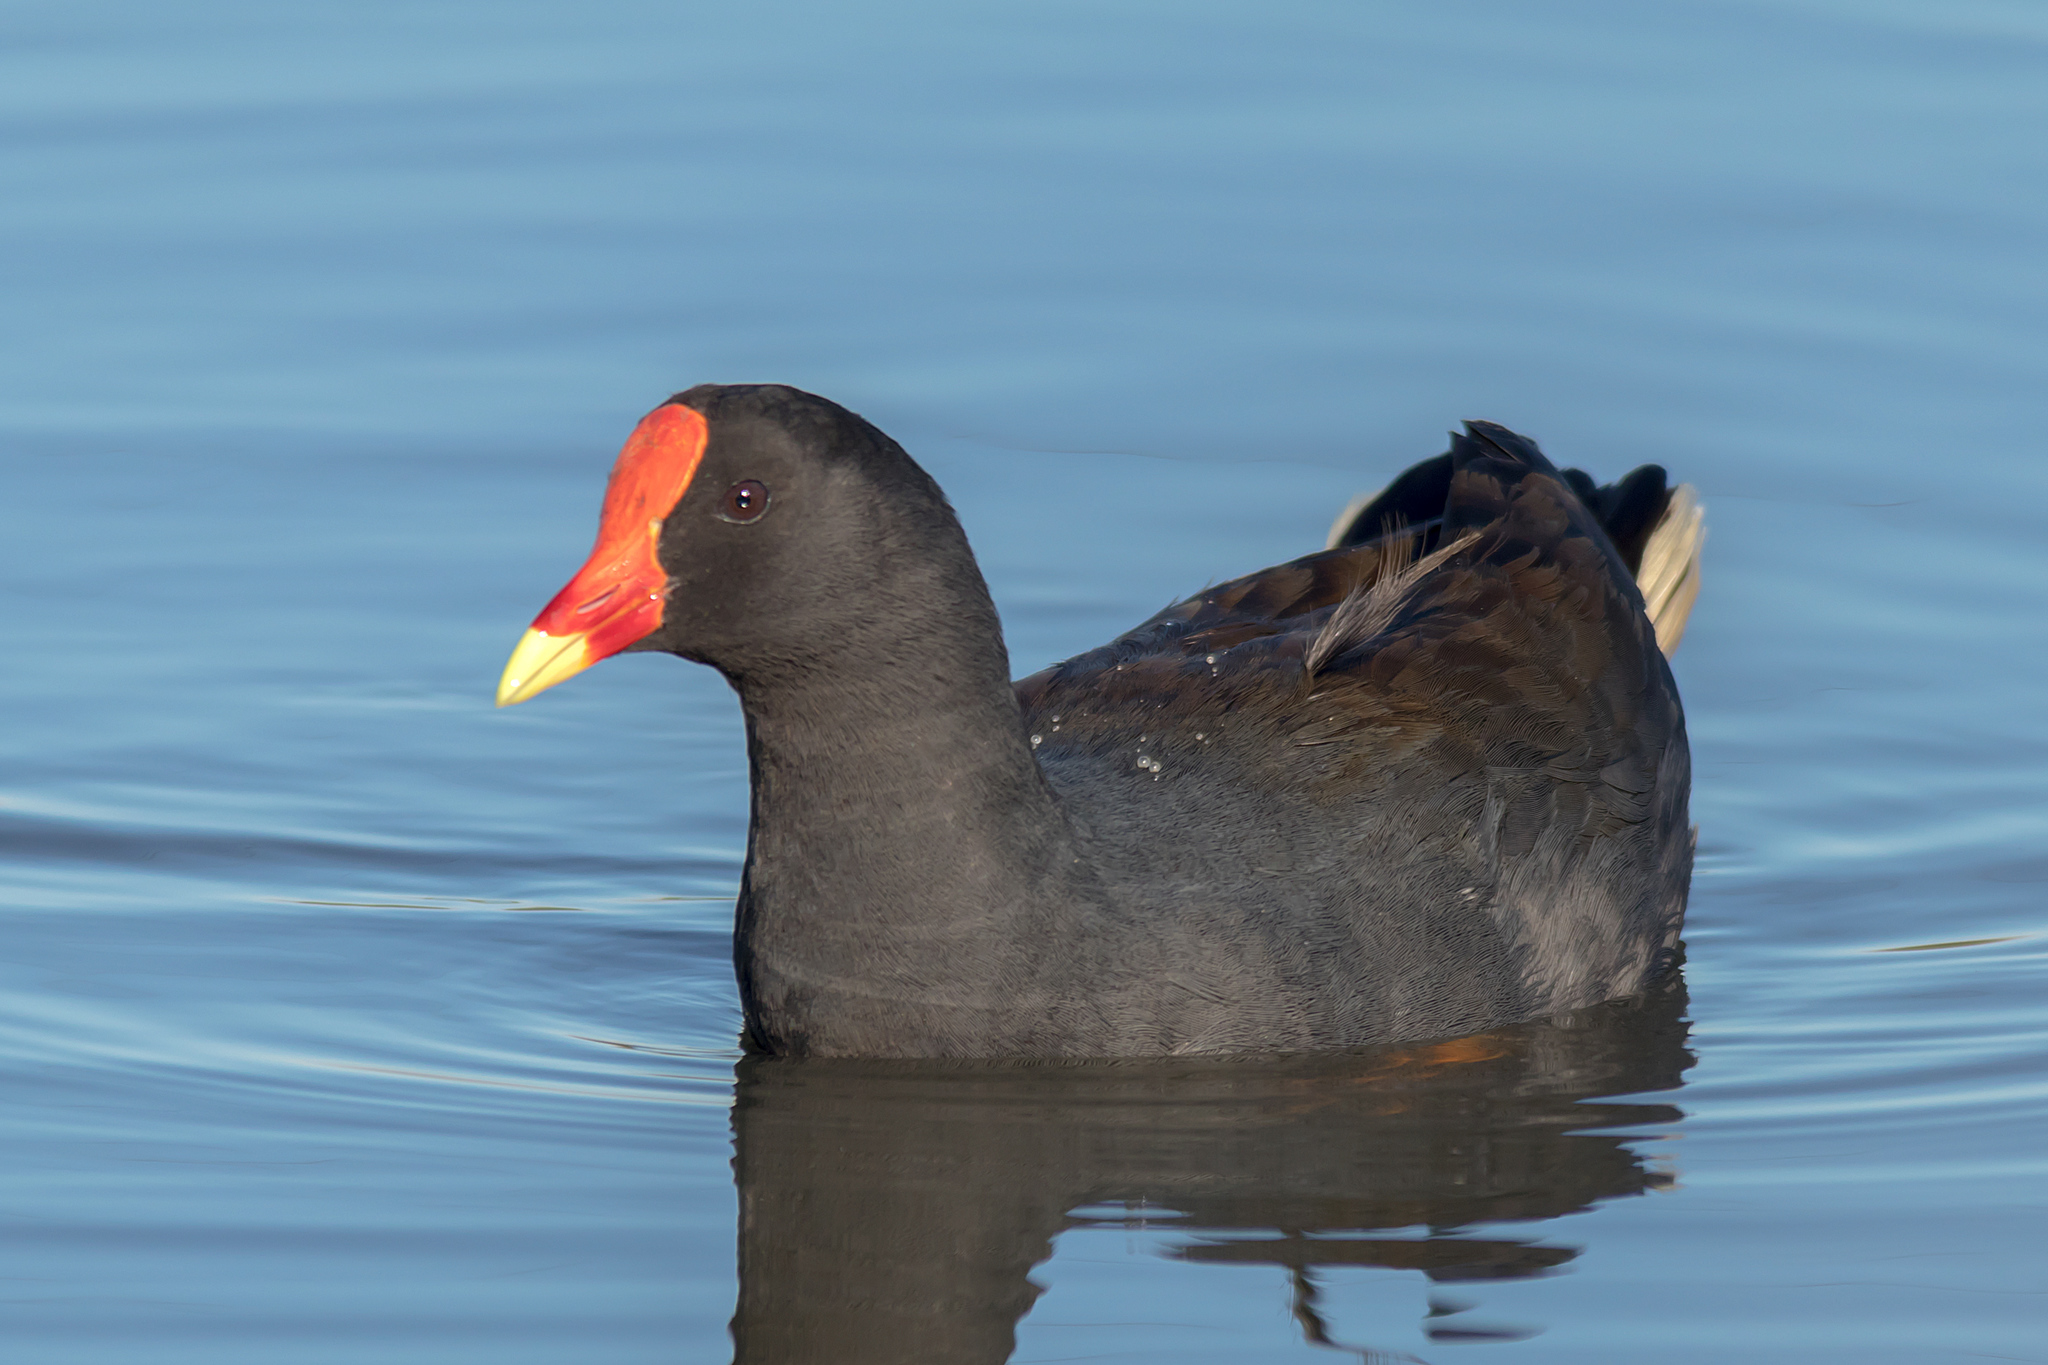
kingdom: Animalia
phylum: Chordata
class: Aves
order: Gruiformes
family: Rallidae
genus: Gallinula
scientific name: Gallinula tenebrosa
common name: Dusky moorhen
